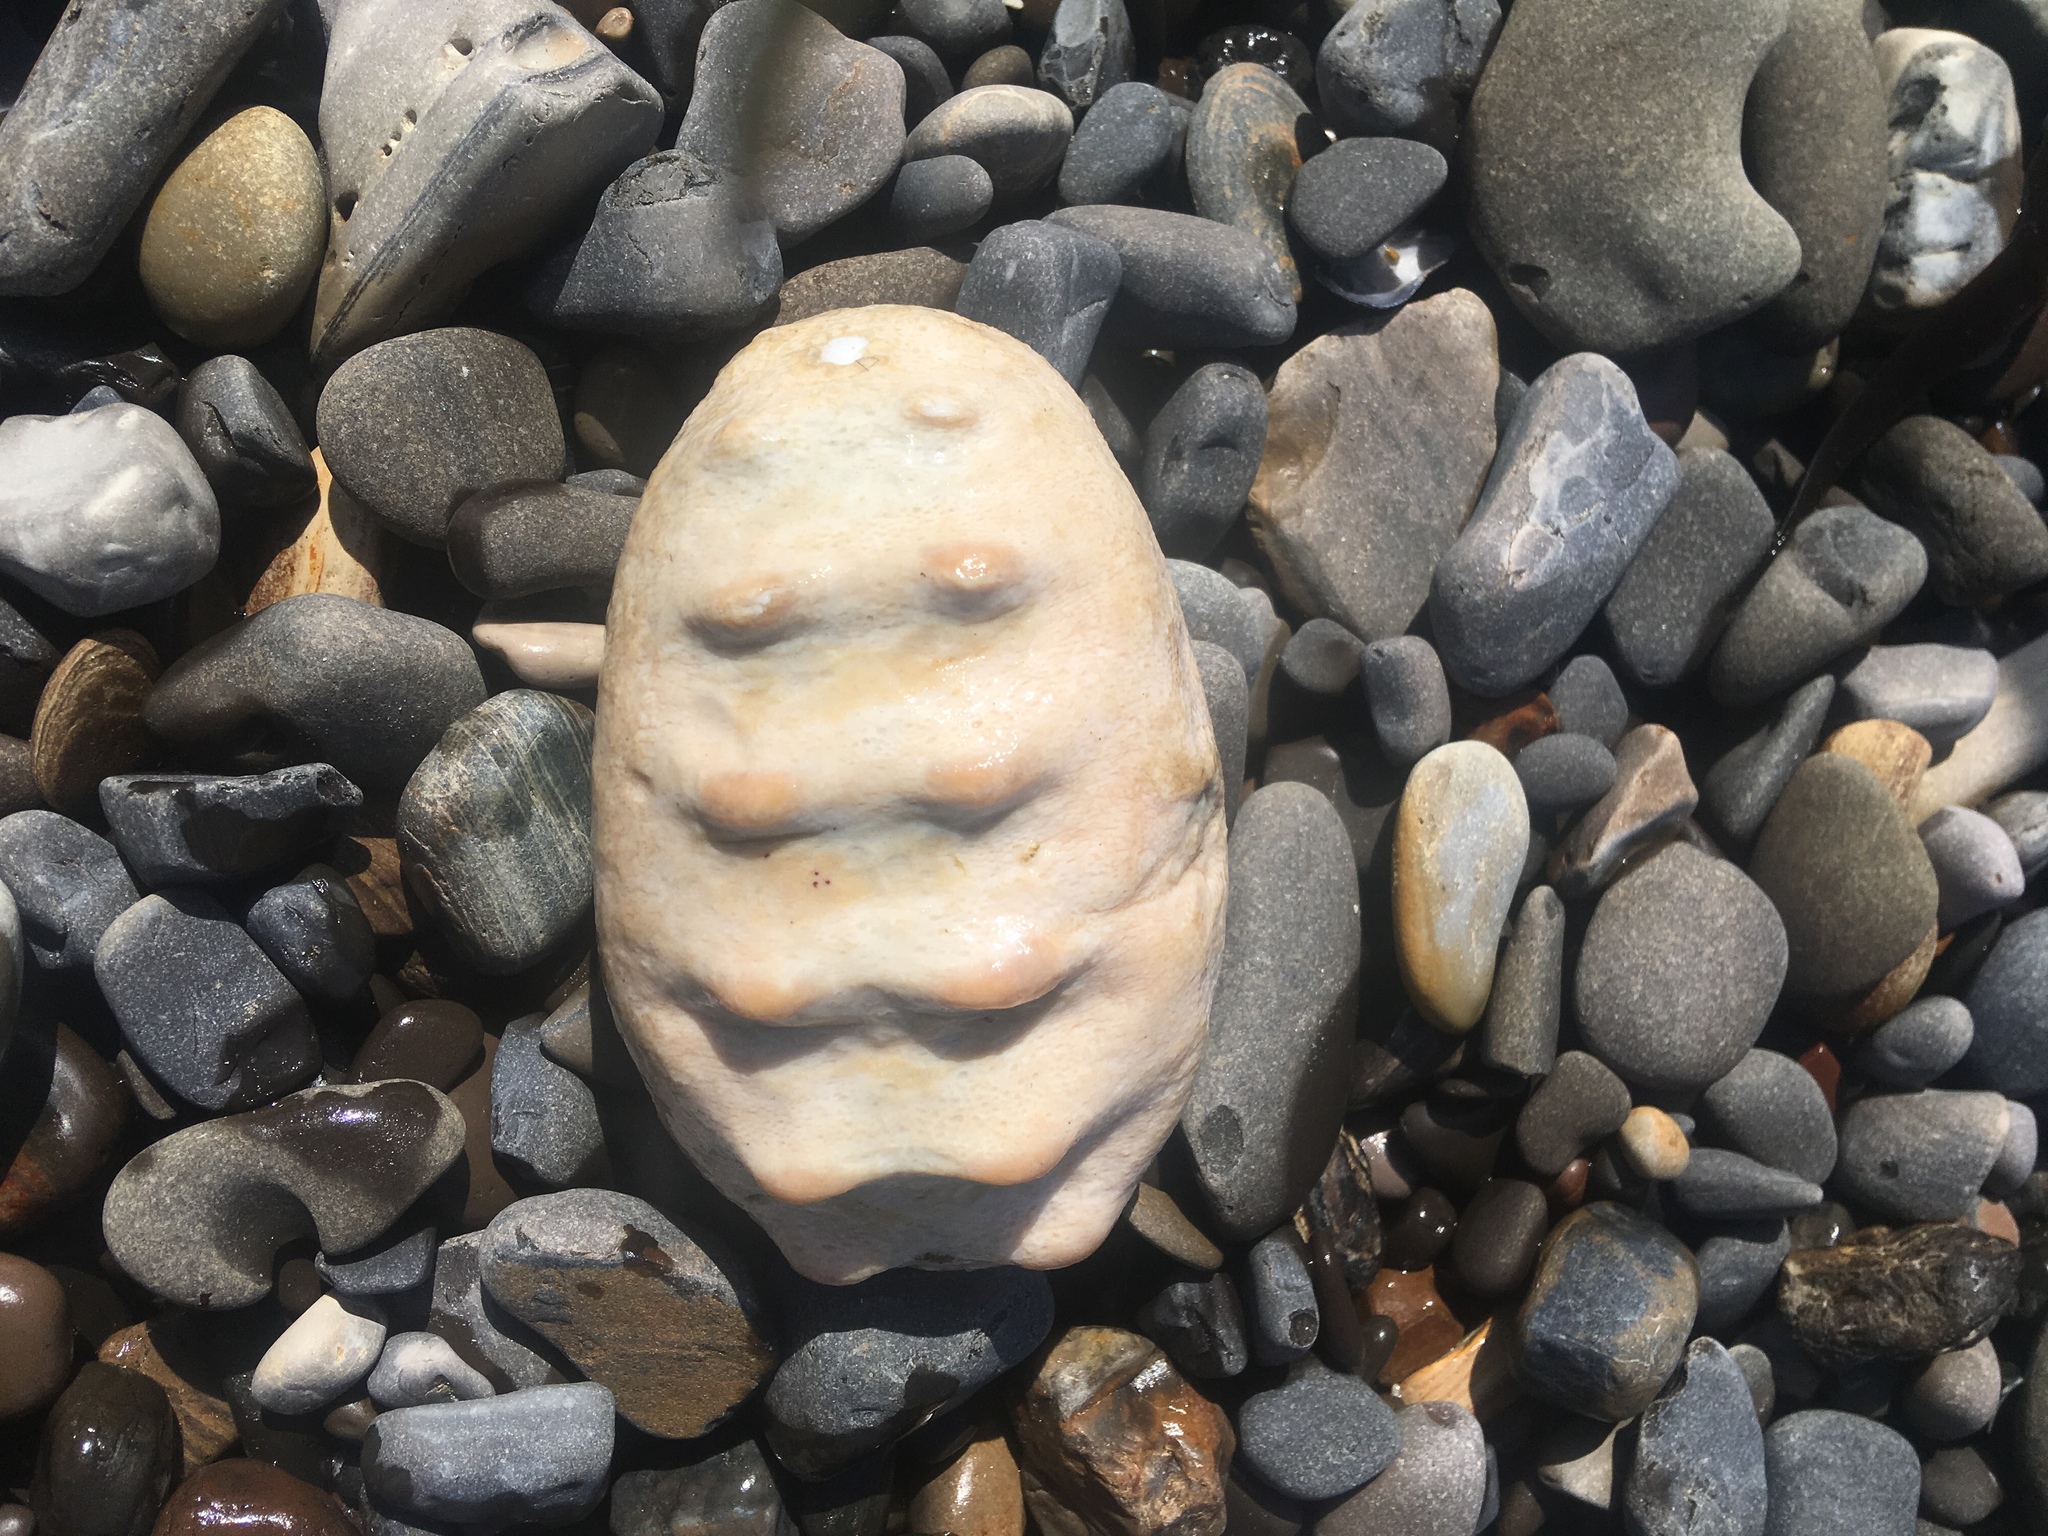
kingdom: Animalia
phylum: Mollusca
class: Polyplacophora
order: Chitonida
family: Acanthochitonidae
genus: Cryptochiton
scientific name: Cryptochiton stelleri
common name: Giant pacific chiton
